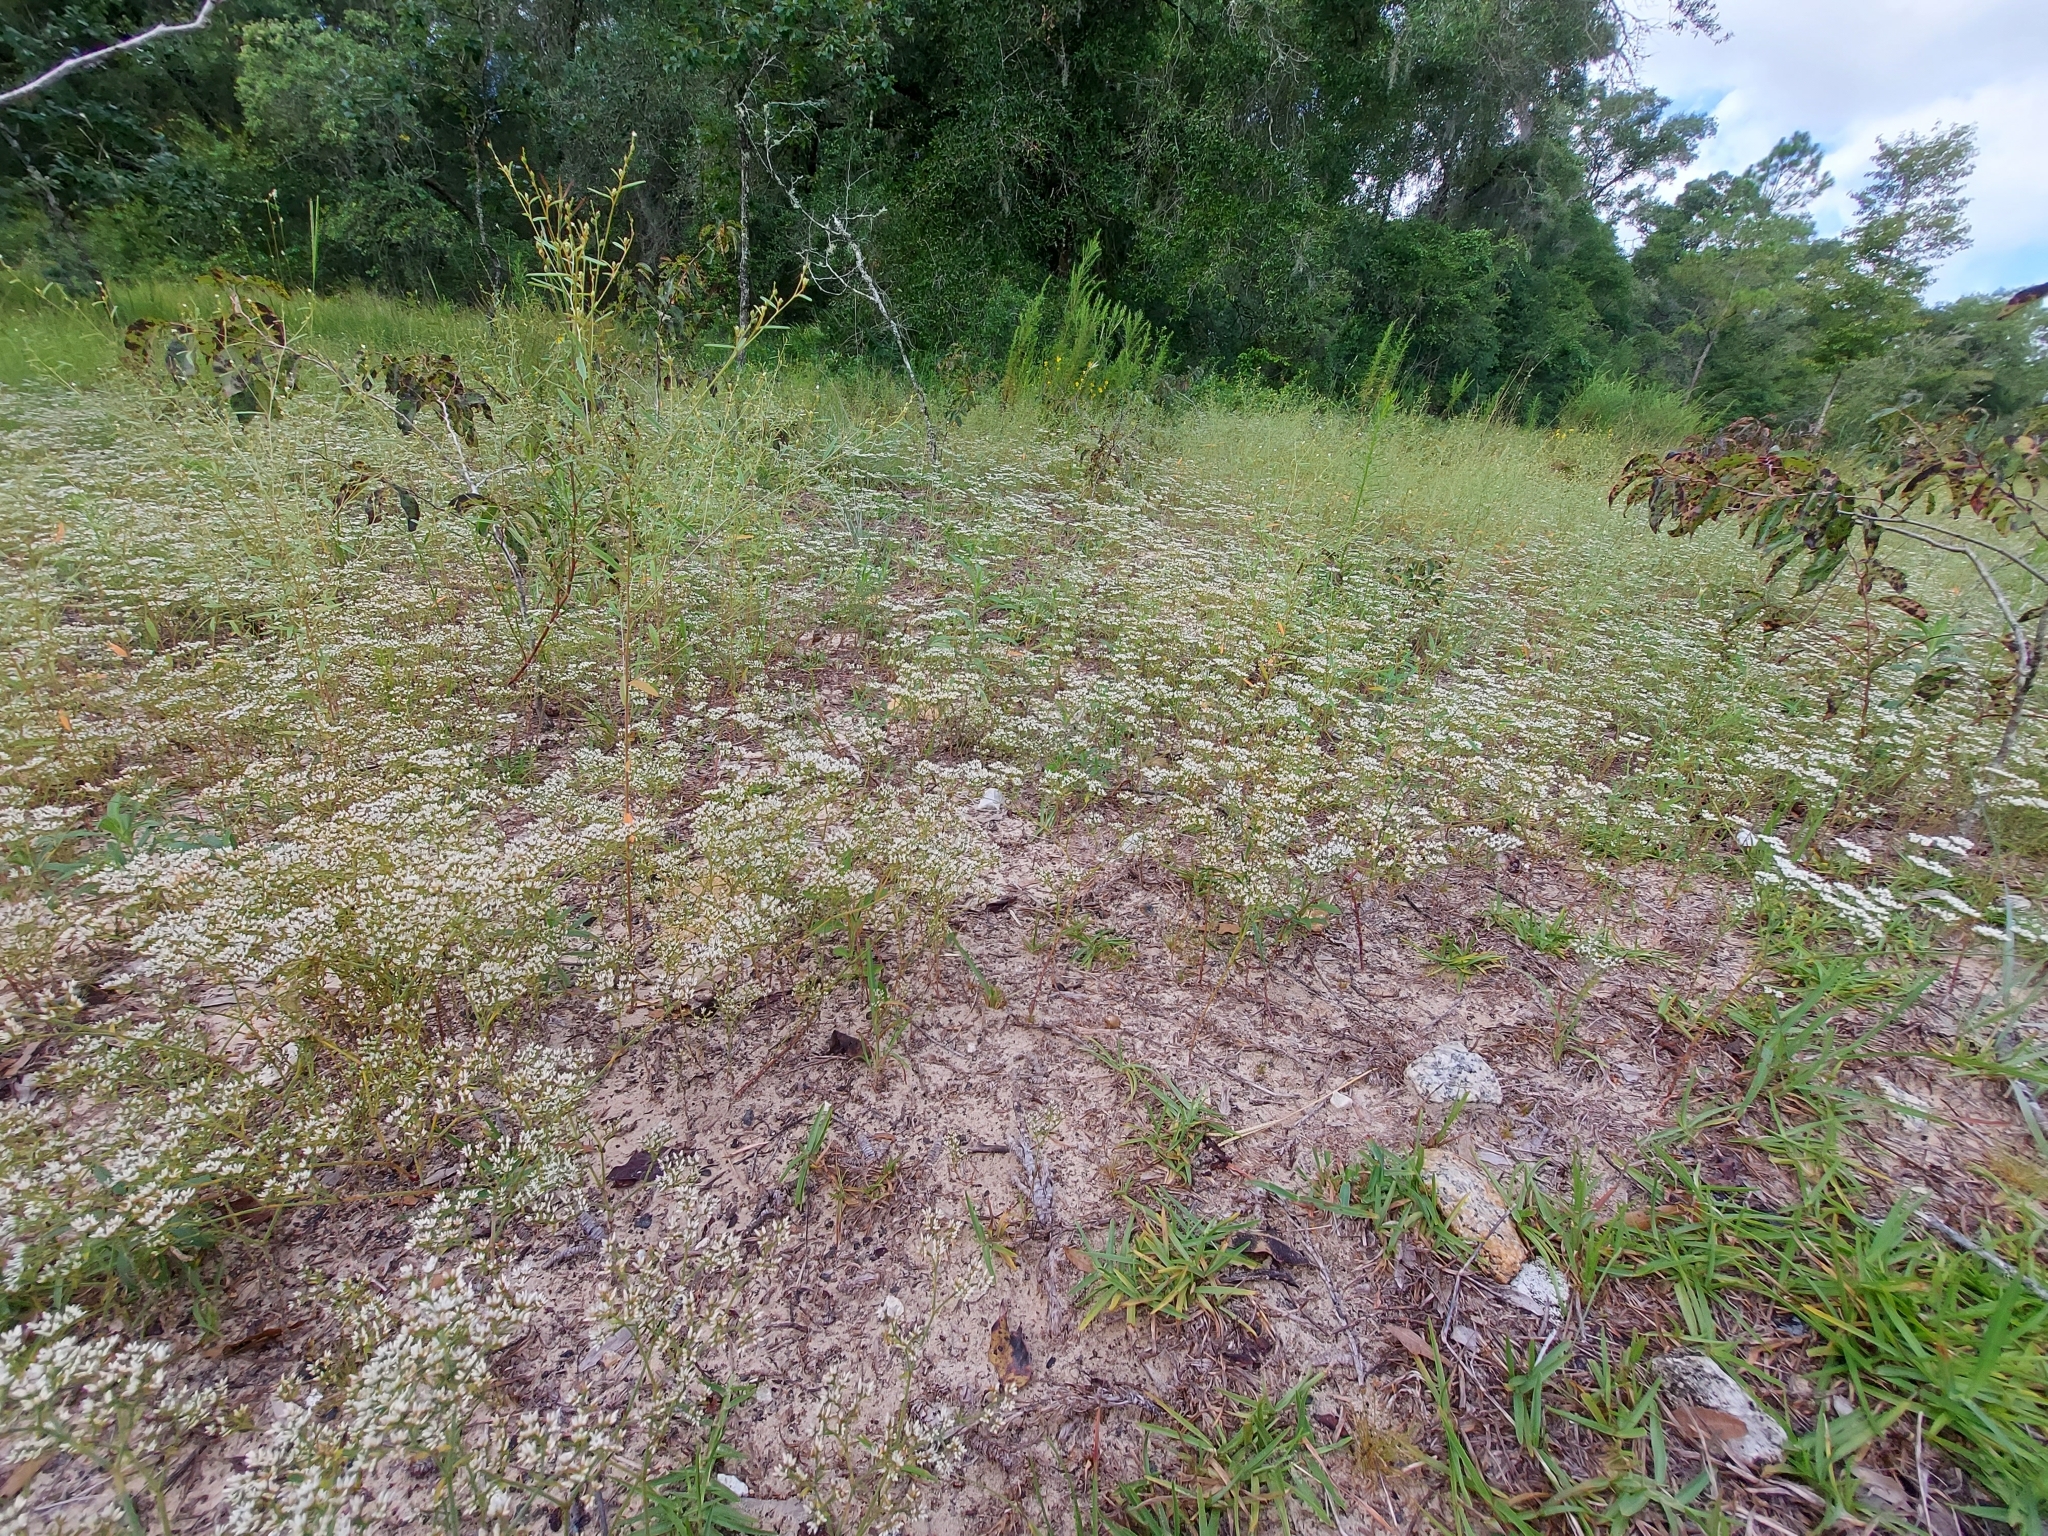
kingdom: Plantae
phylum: Tracheophyta
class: Magnoliopsida
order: Caryophyllales
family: Caryophyllaceae
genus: Paronychia
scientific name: Paronychia rugelii
